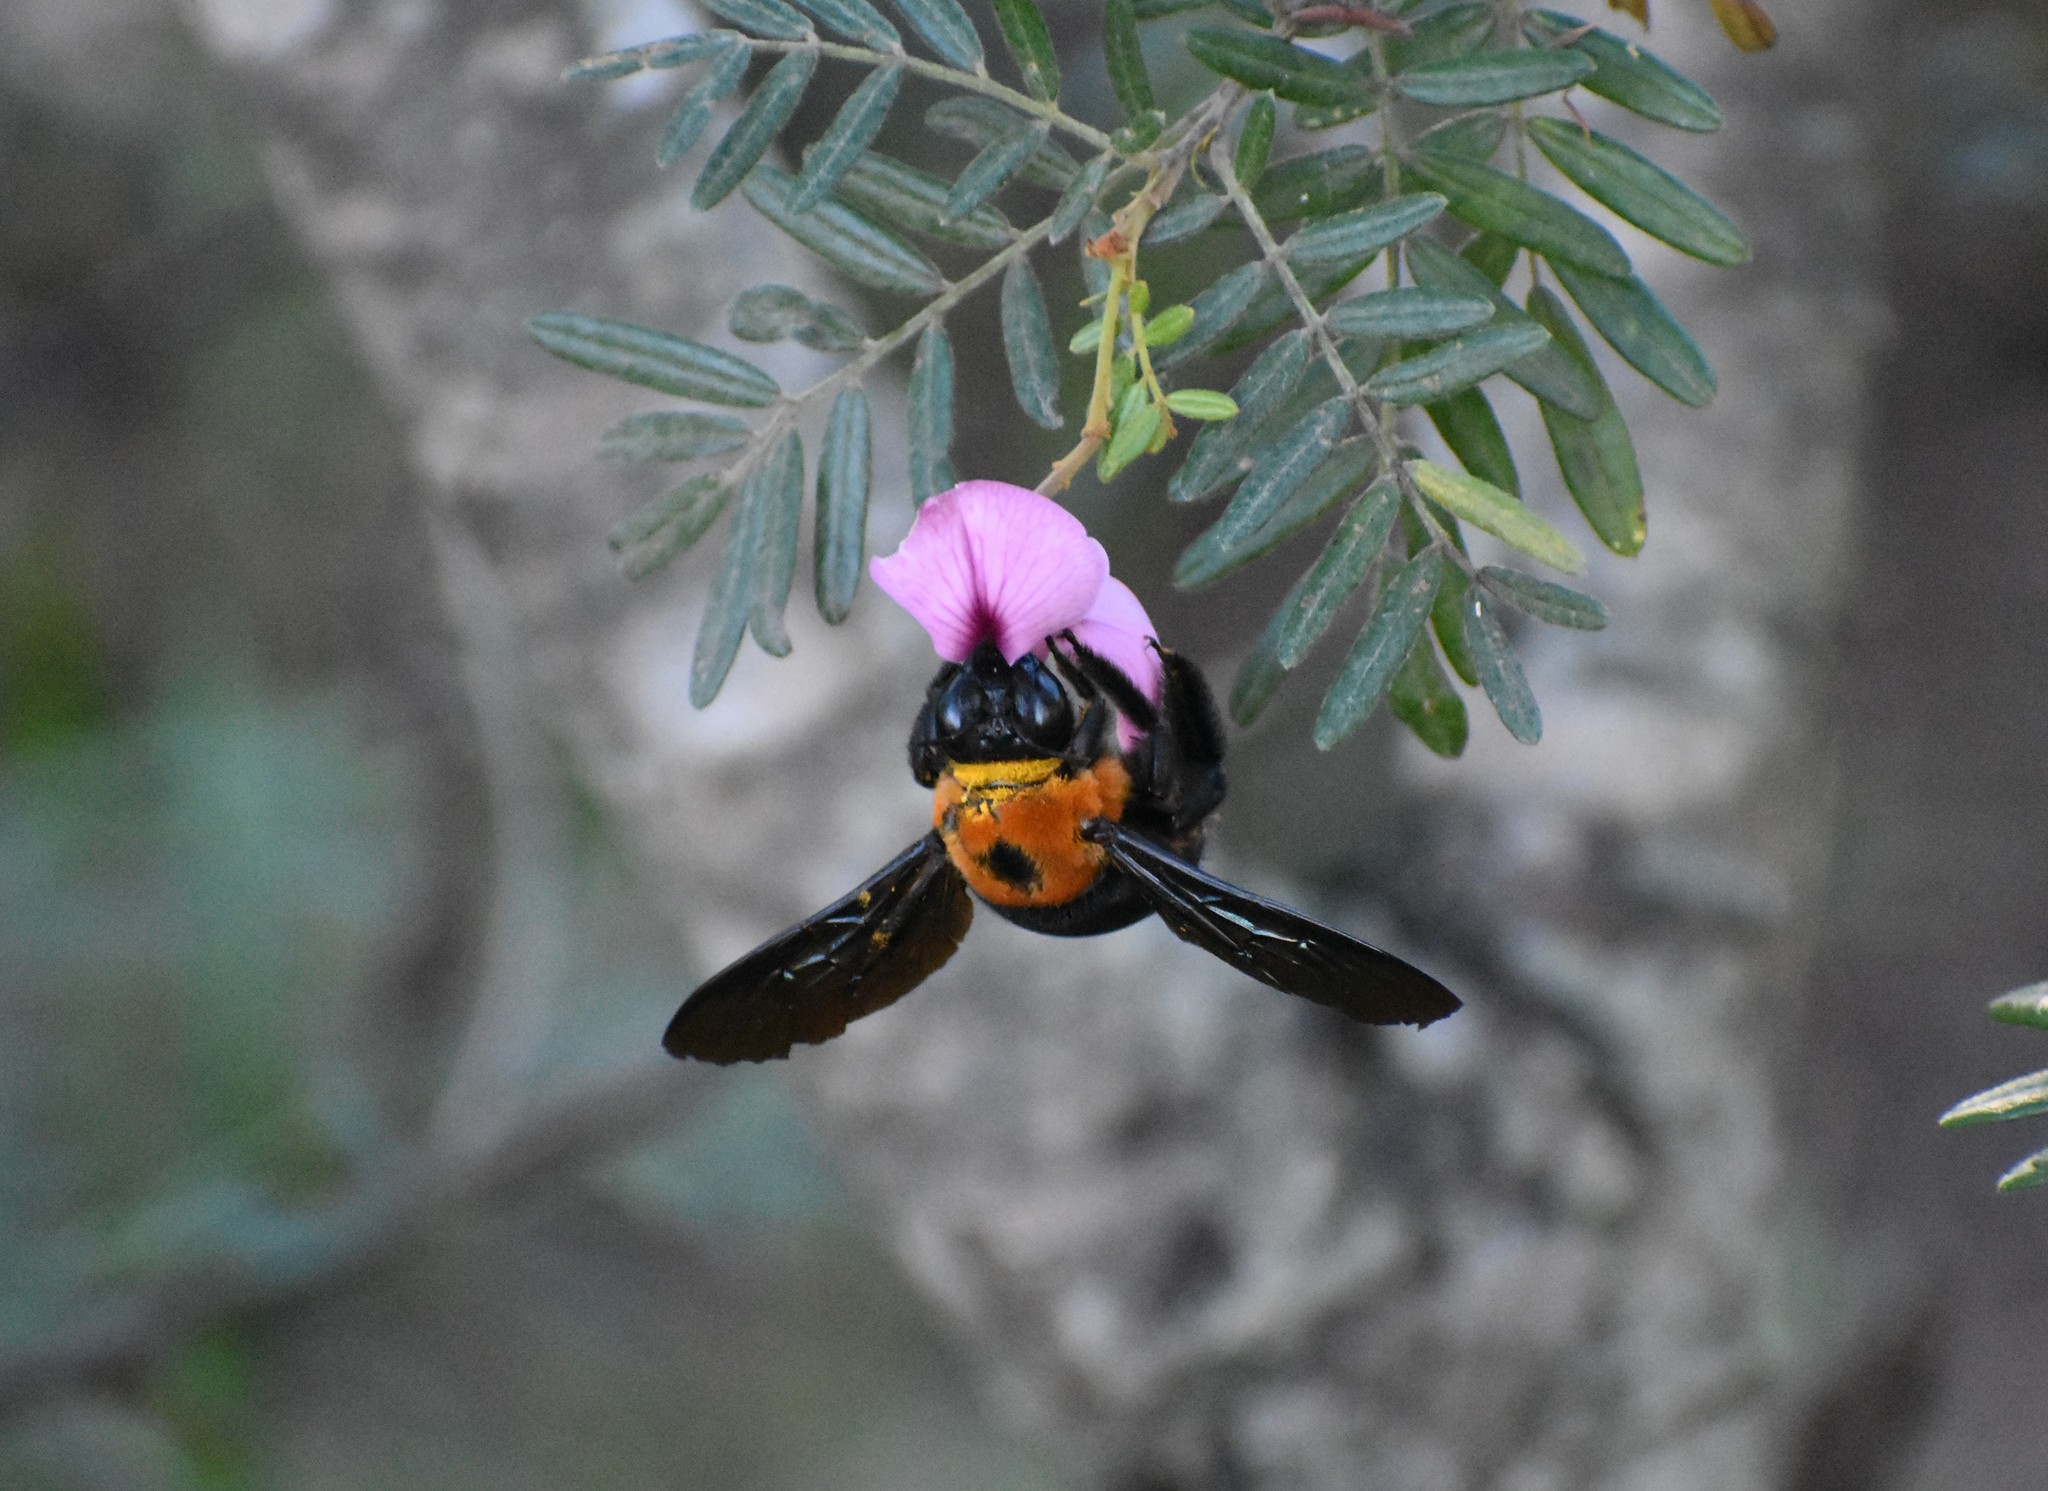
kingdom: Animalia
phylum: Arthropoda
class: Insecta
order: Hymenoptera
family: Apidae
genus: Xylocopa
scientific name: Xylocopa flavorufa
